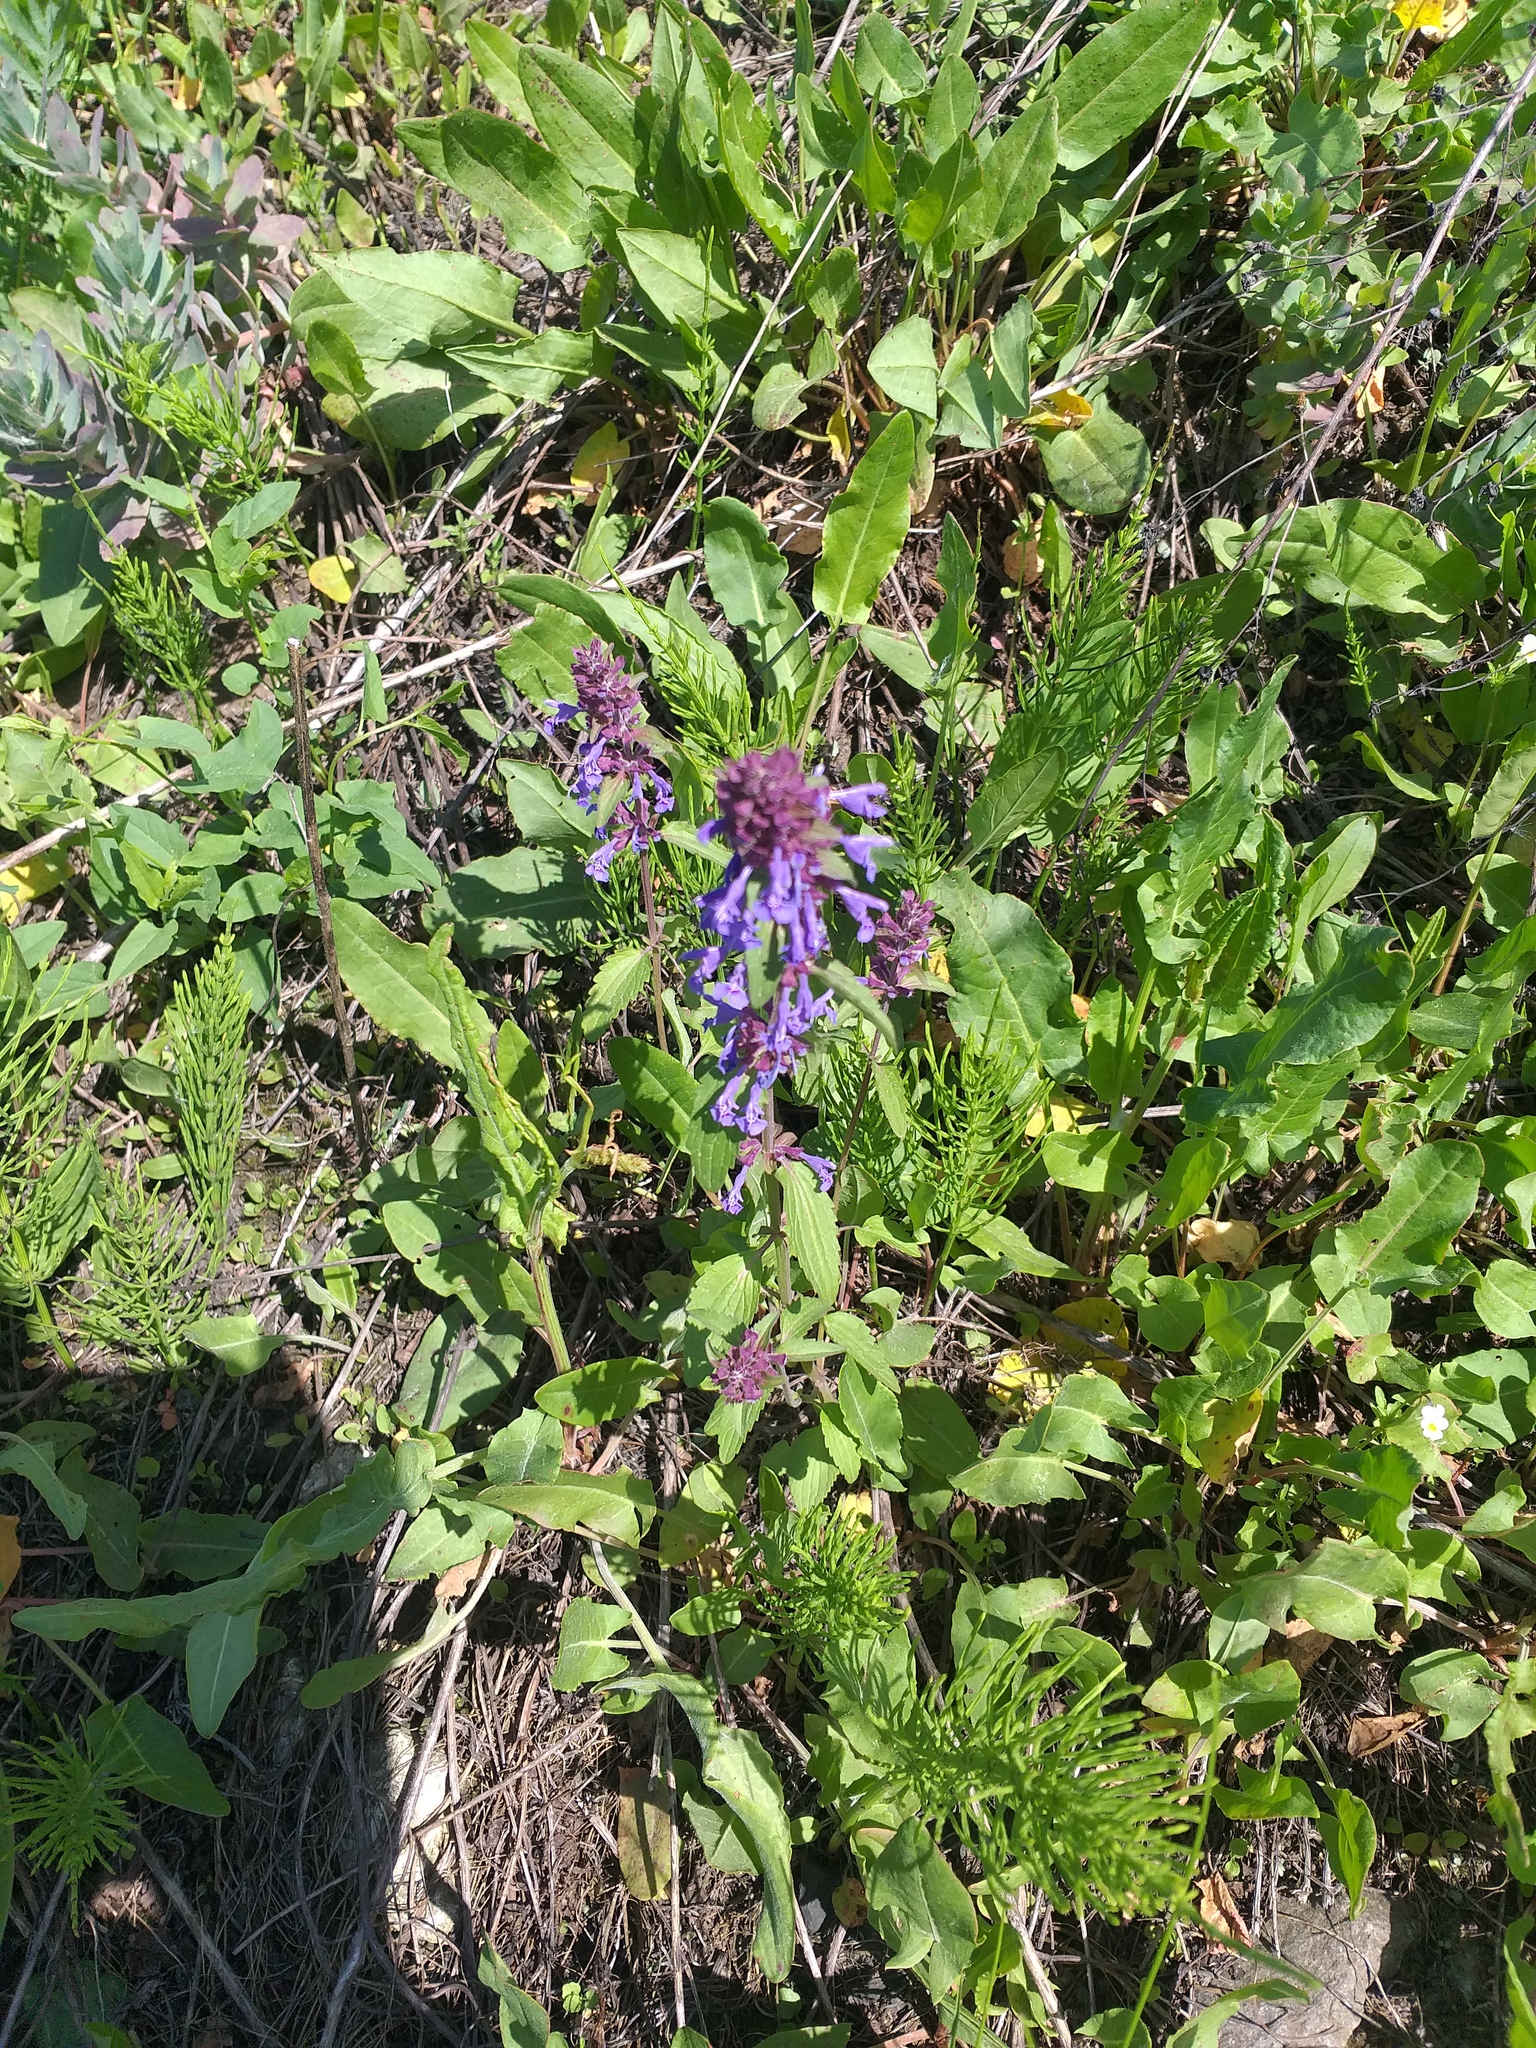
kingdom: Plantae
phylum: Tracheophyta
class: Magnoliopsida
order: Lamiales
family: Lamiaceae
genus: Dracocephalum
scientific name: Dracocephalum nutans
